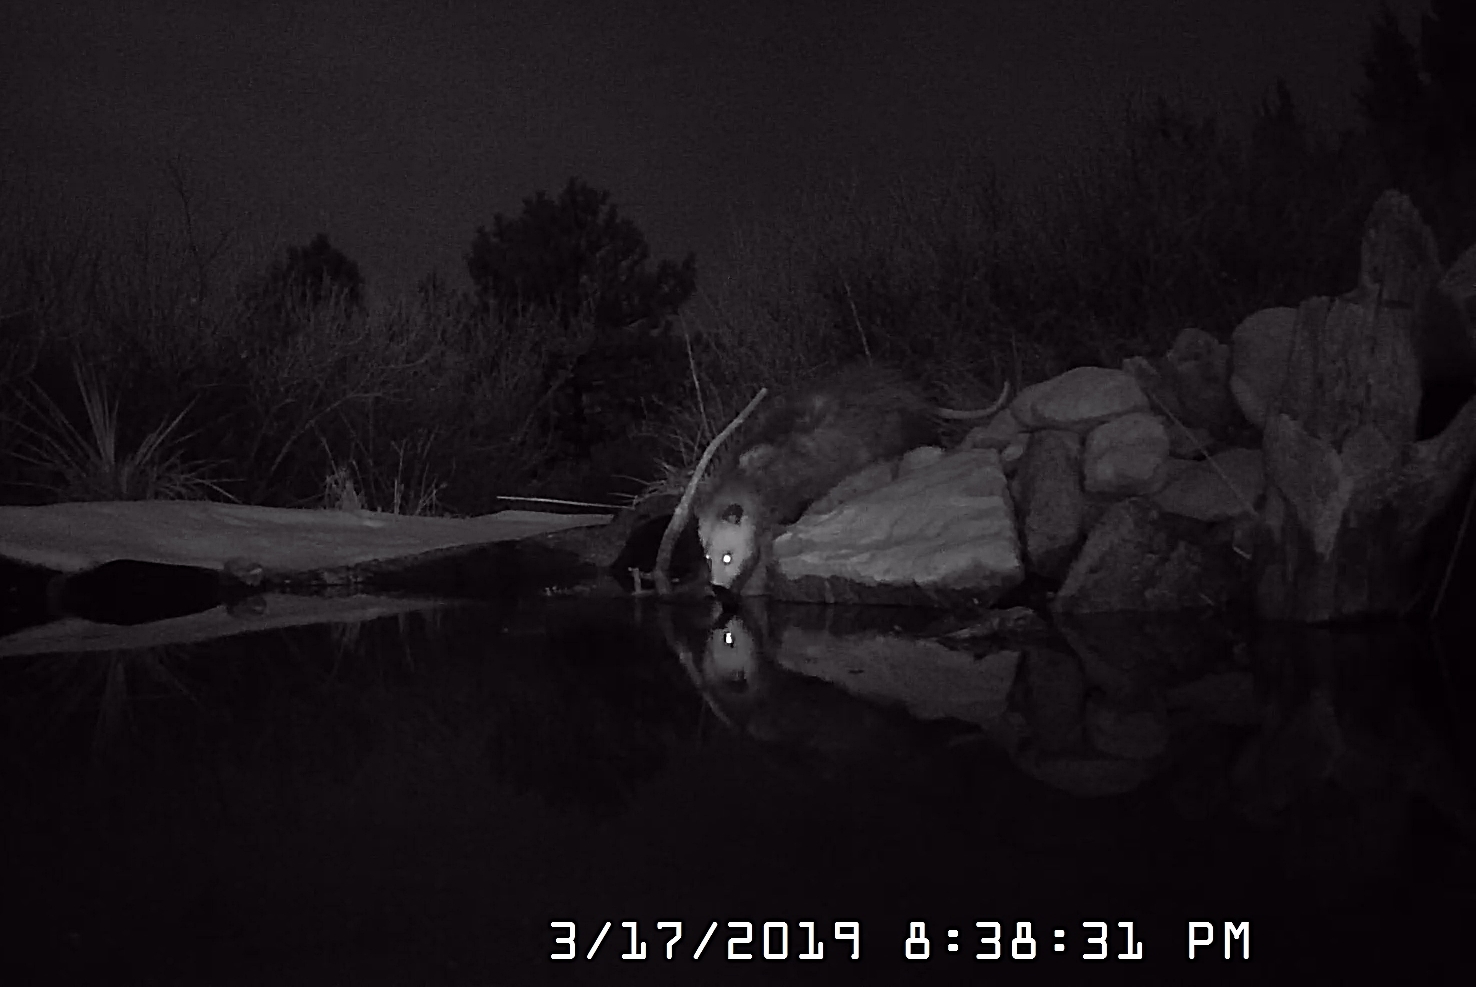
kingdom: Animalia
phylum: Chordata
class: Mammalia
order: Didelphimorphia
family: Didelphidae
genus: Didelphis
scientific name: Didelphis virginiana
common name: Virginia opossum
